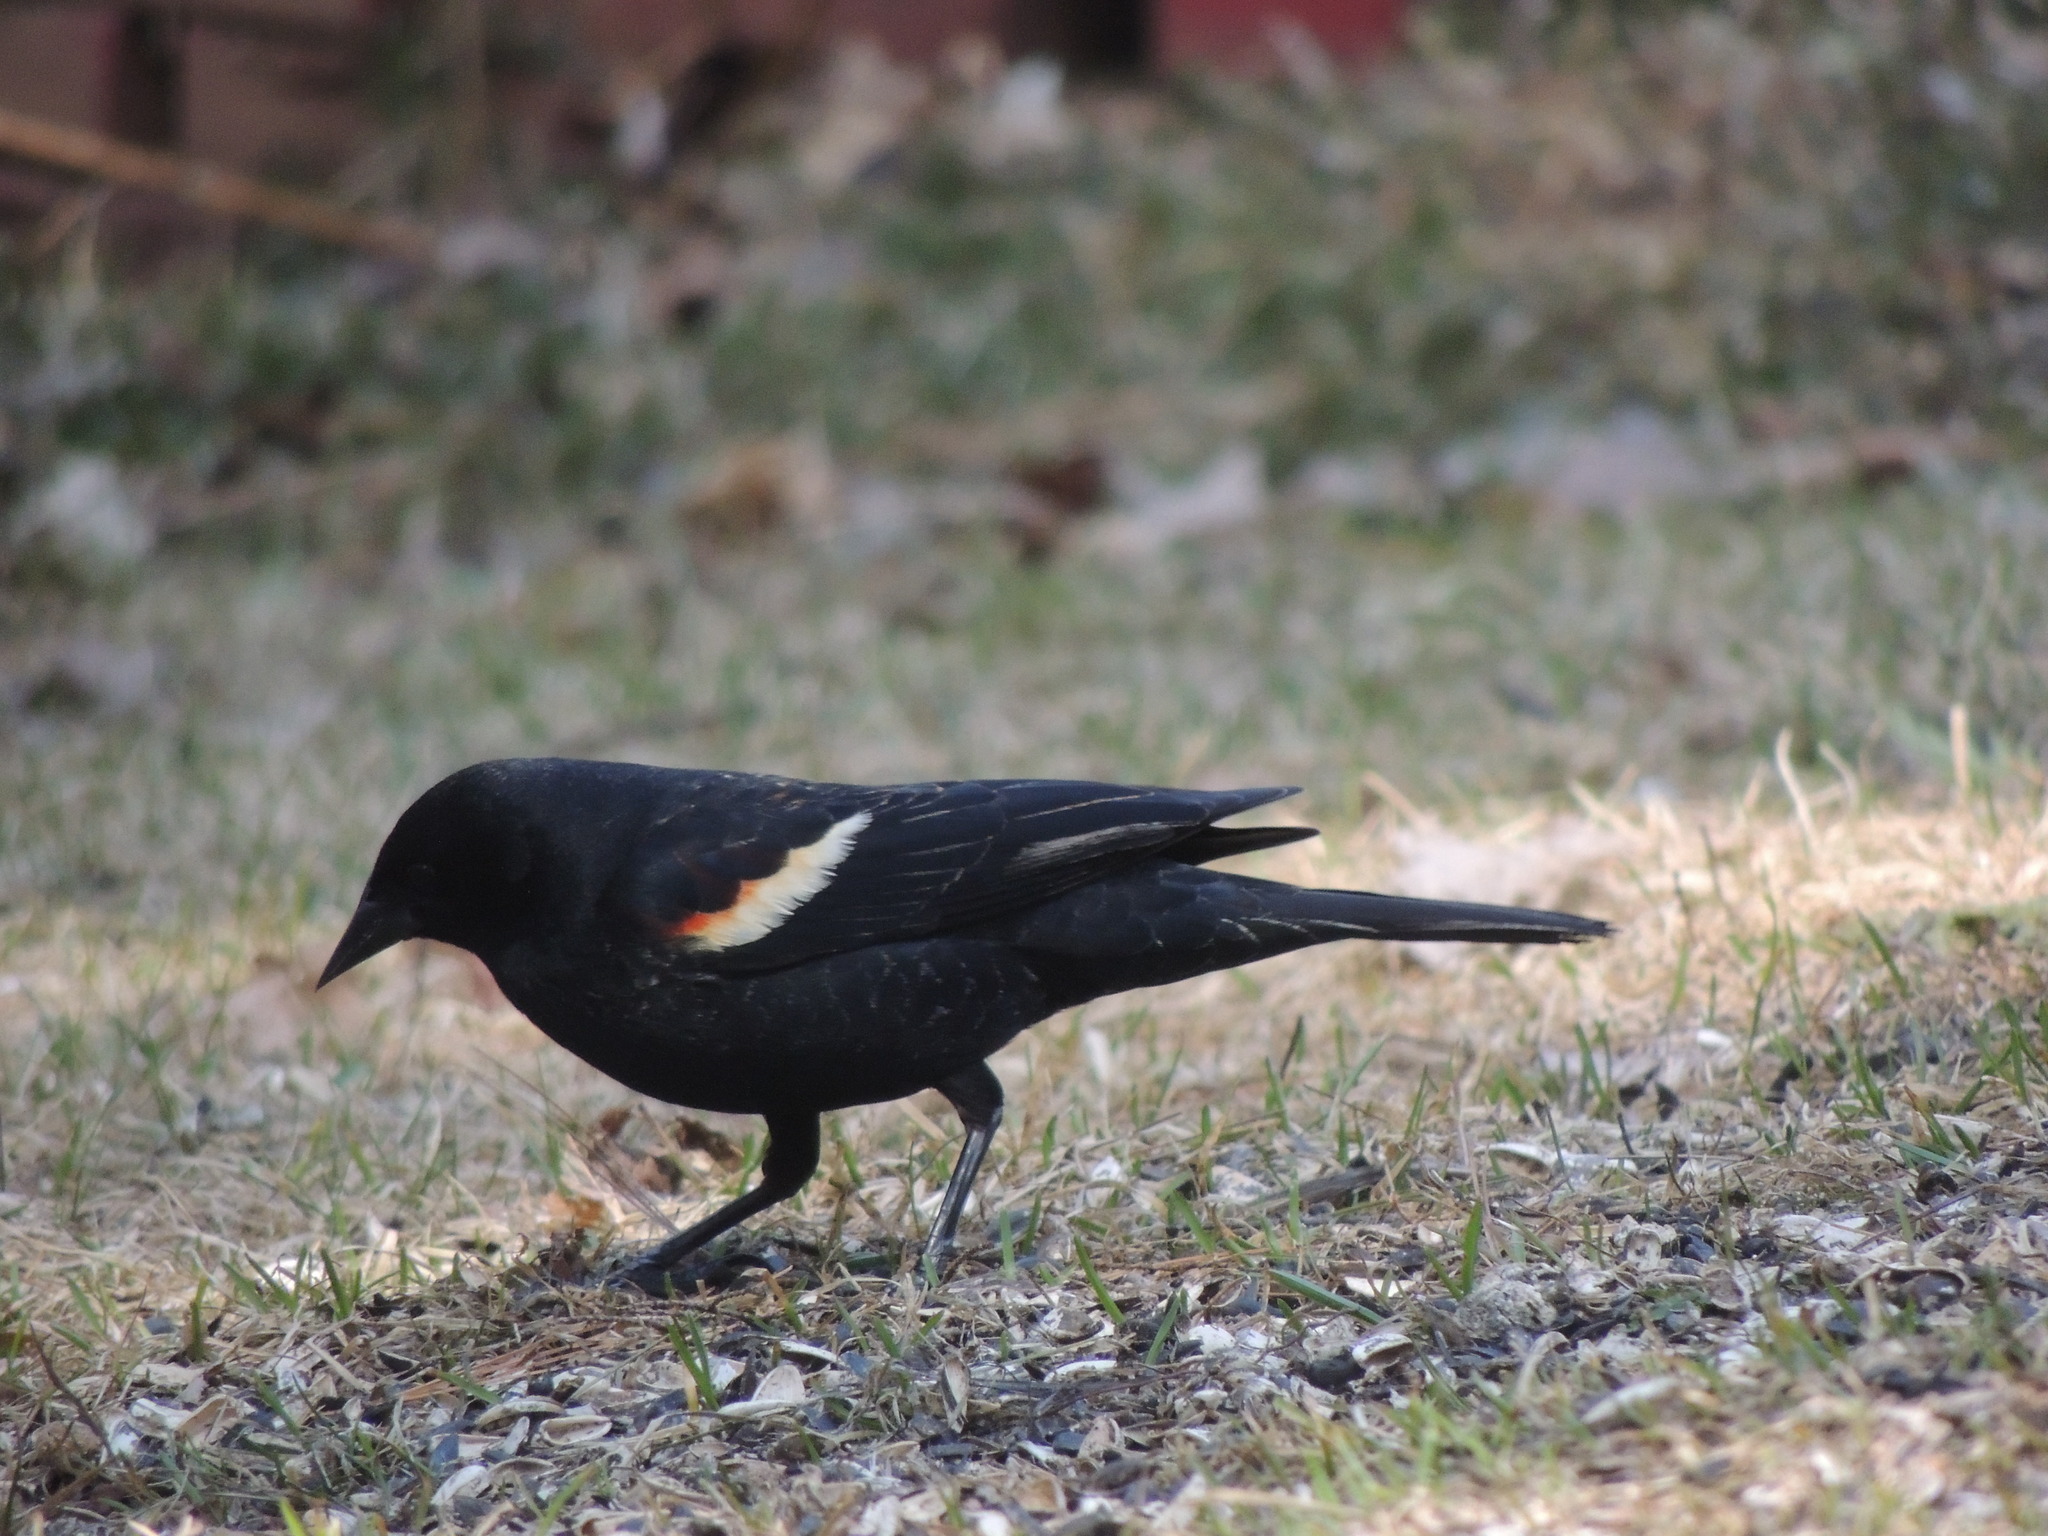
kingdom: Animalia
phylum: Chordata
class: Aves
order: Passeriformes
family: Icteridae
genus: Agelaius
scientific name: Agelaius phoeniceus
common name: Red-winged blackbird
